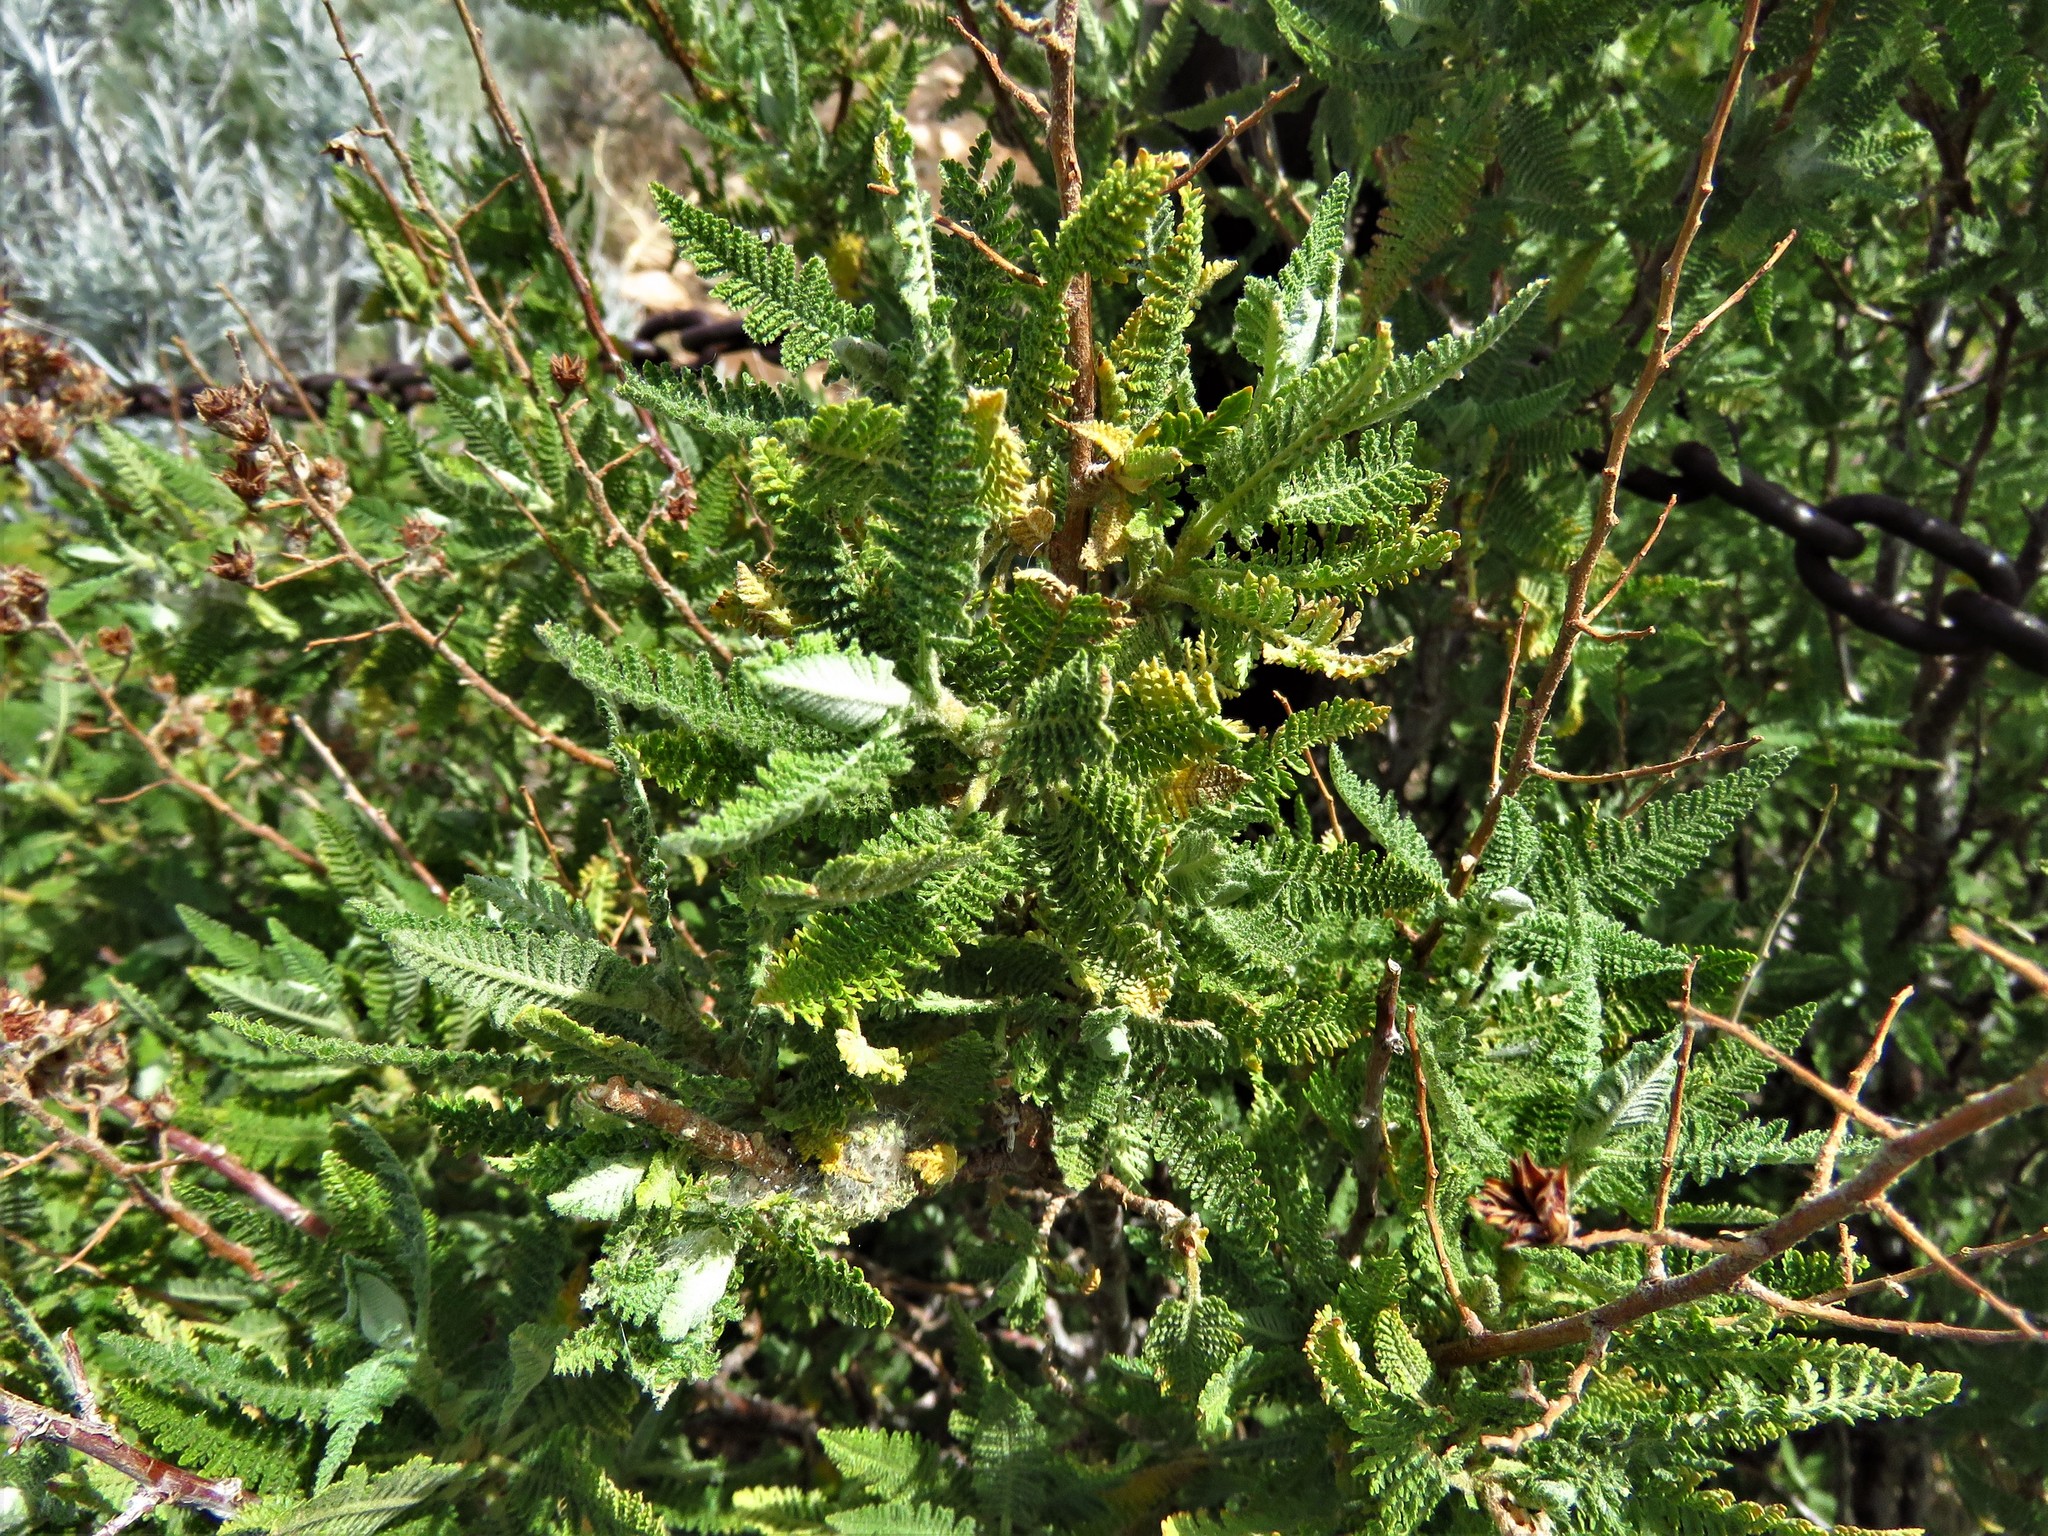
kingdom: Plantae
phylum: Tracheophyta
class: Magnoliopsida
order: Rosales
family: Rosaceae
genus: Chamaebatiaria
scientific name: Chamaebatiaria millefolium
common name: Fernbush
